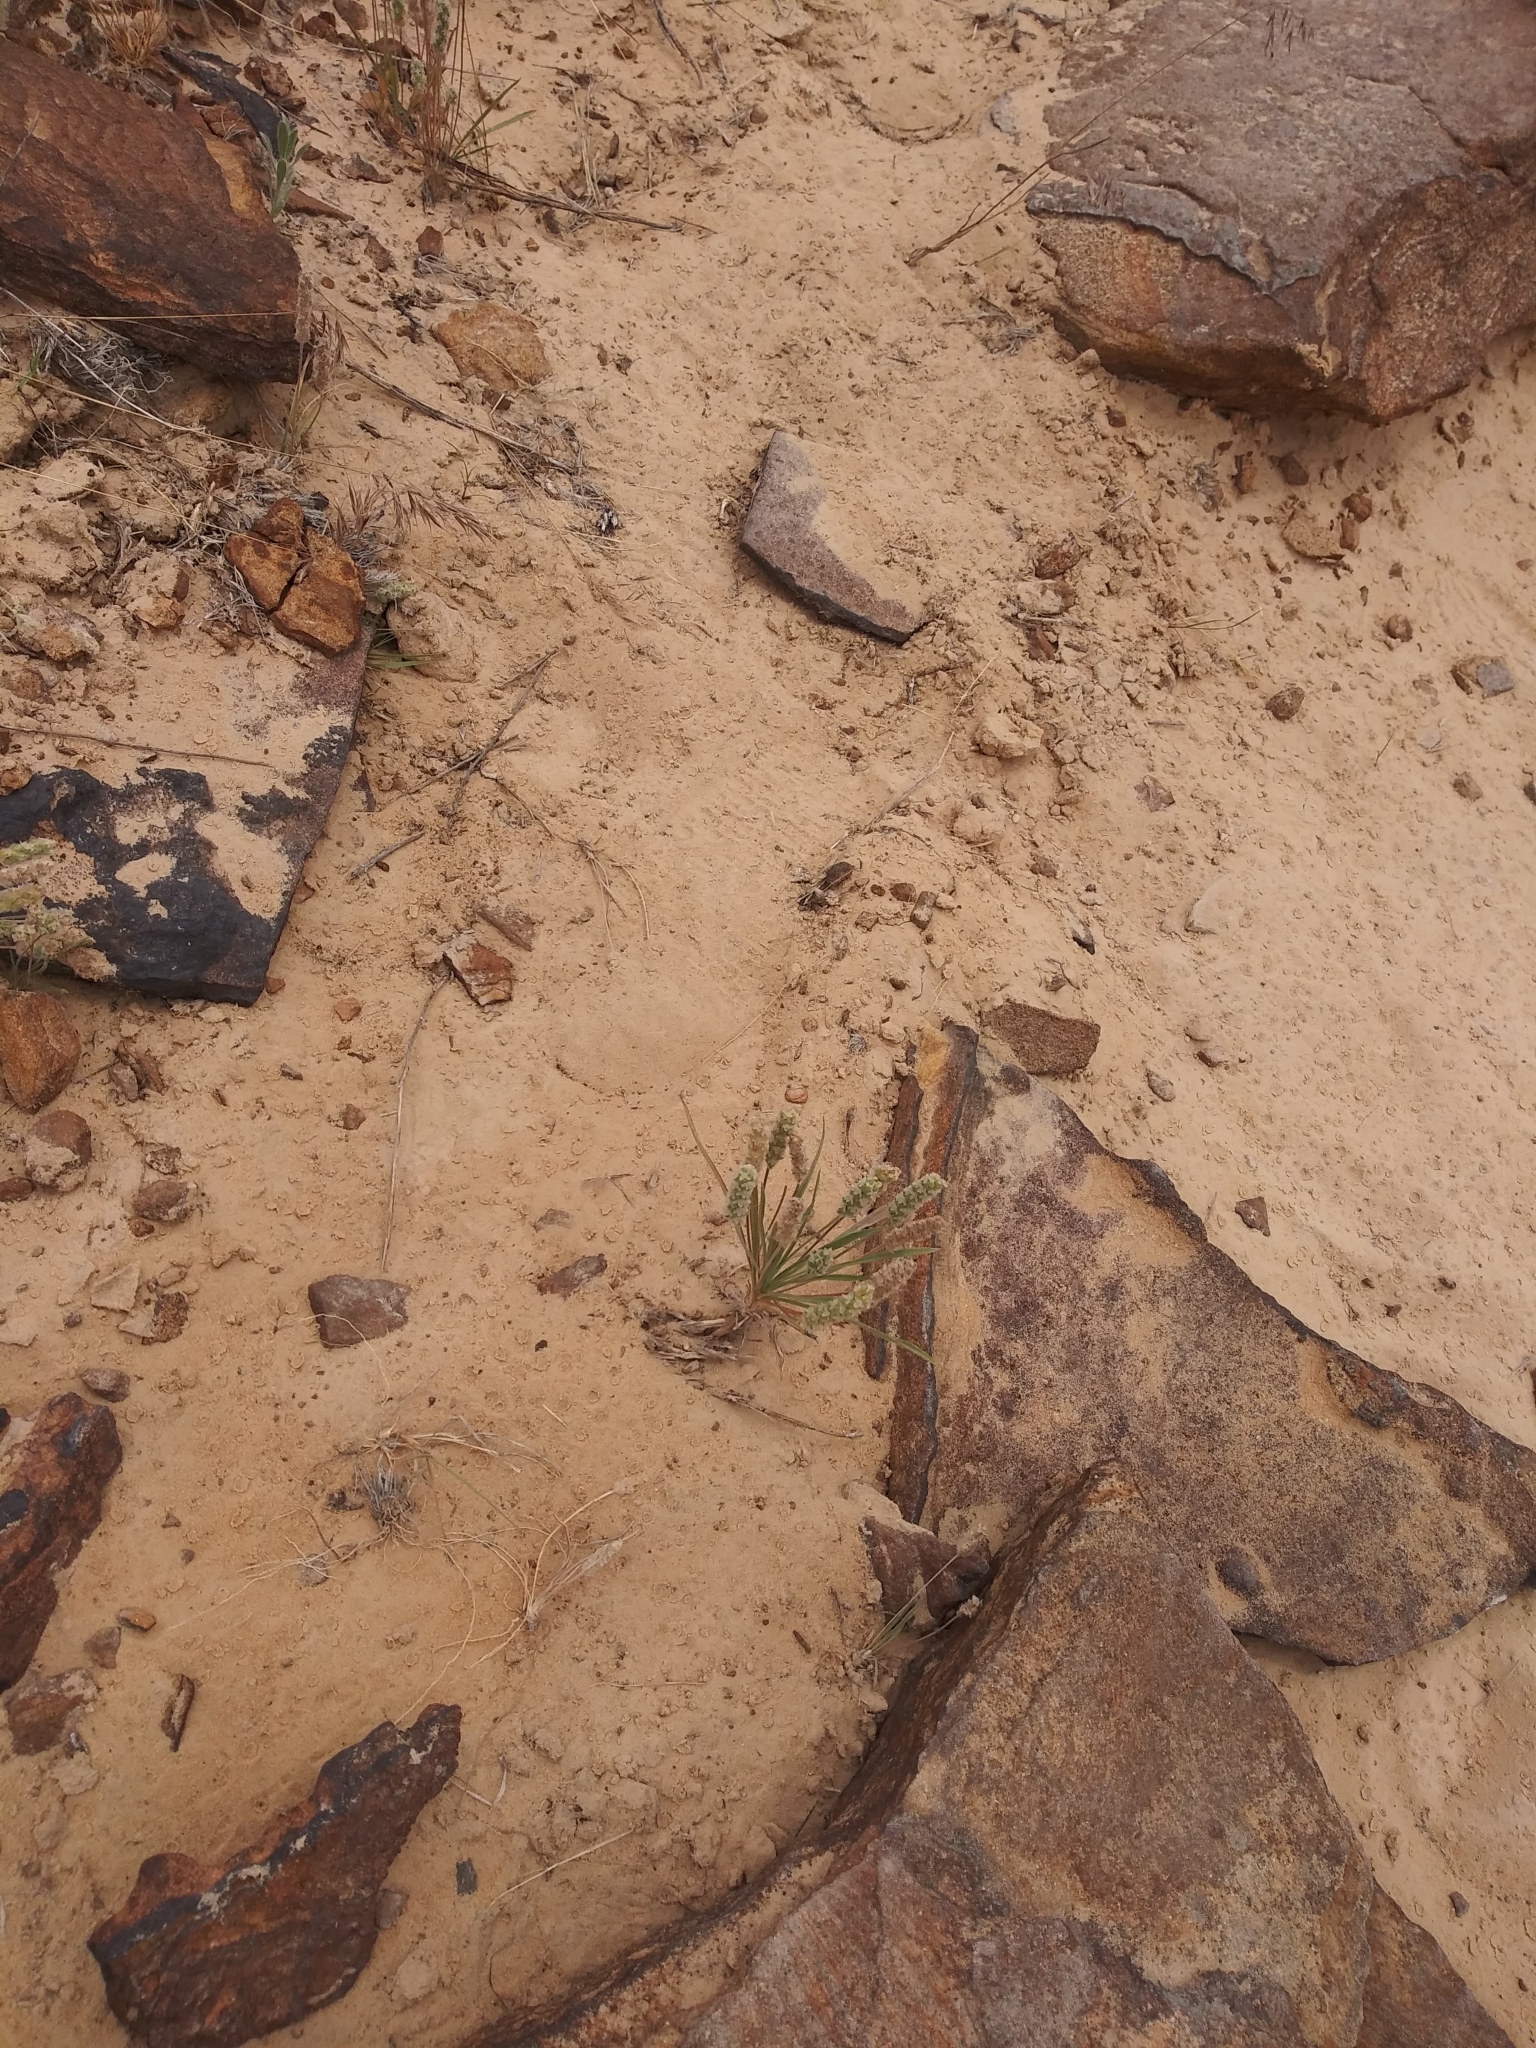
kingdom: Plantae
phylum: Tracheophyta
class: Magnoliopsida
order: Lamiales
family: Plantaginaceae
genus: Plantago
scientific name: Plantago patagonica
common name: Patagonia indian-wheat
